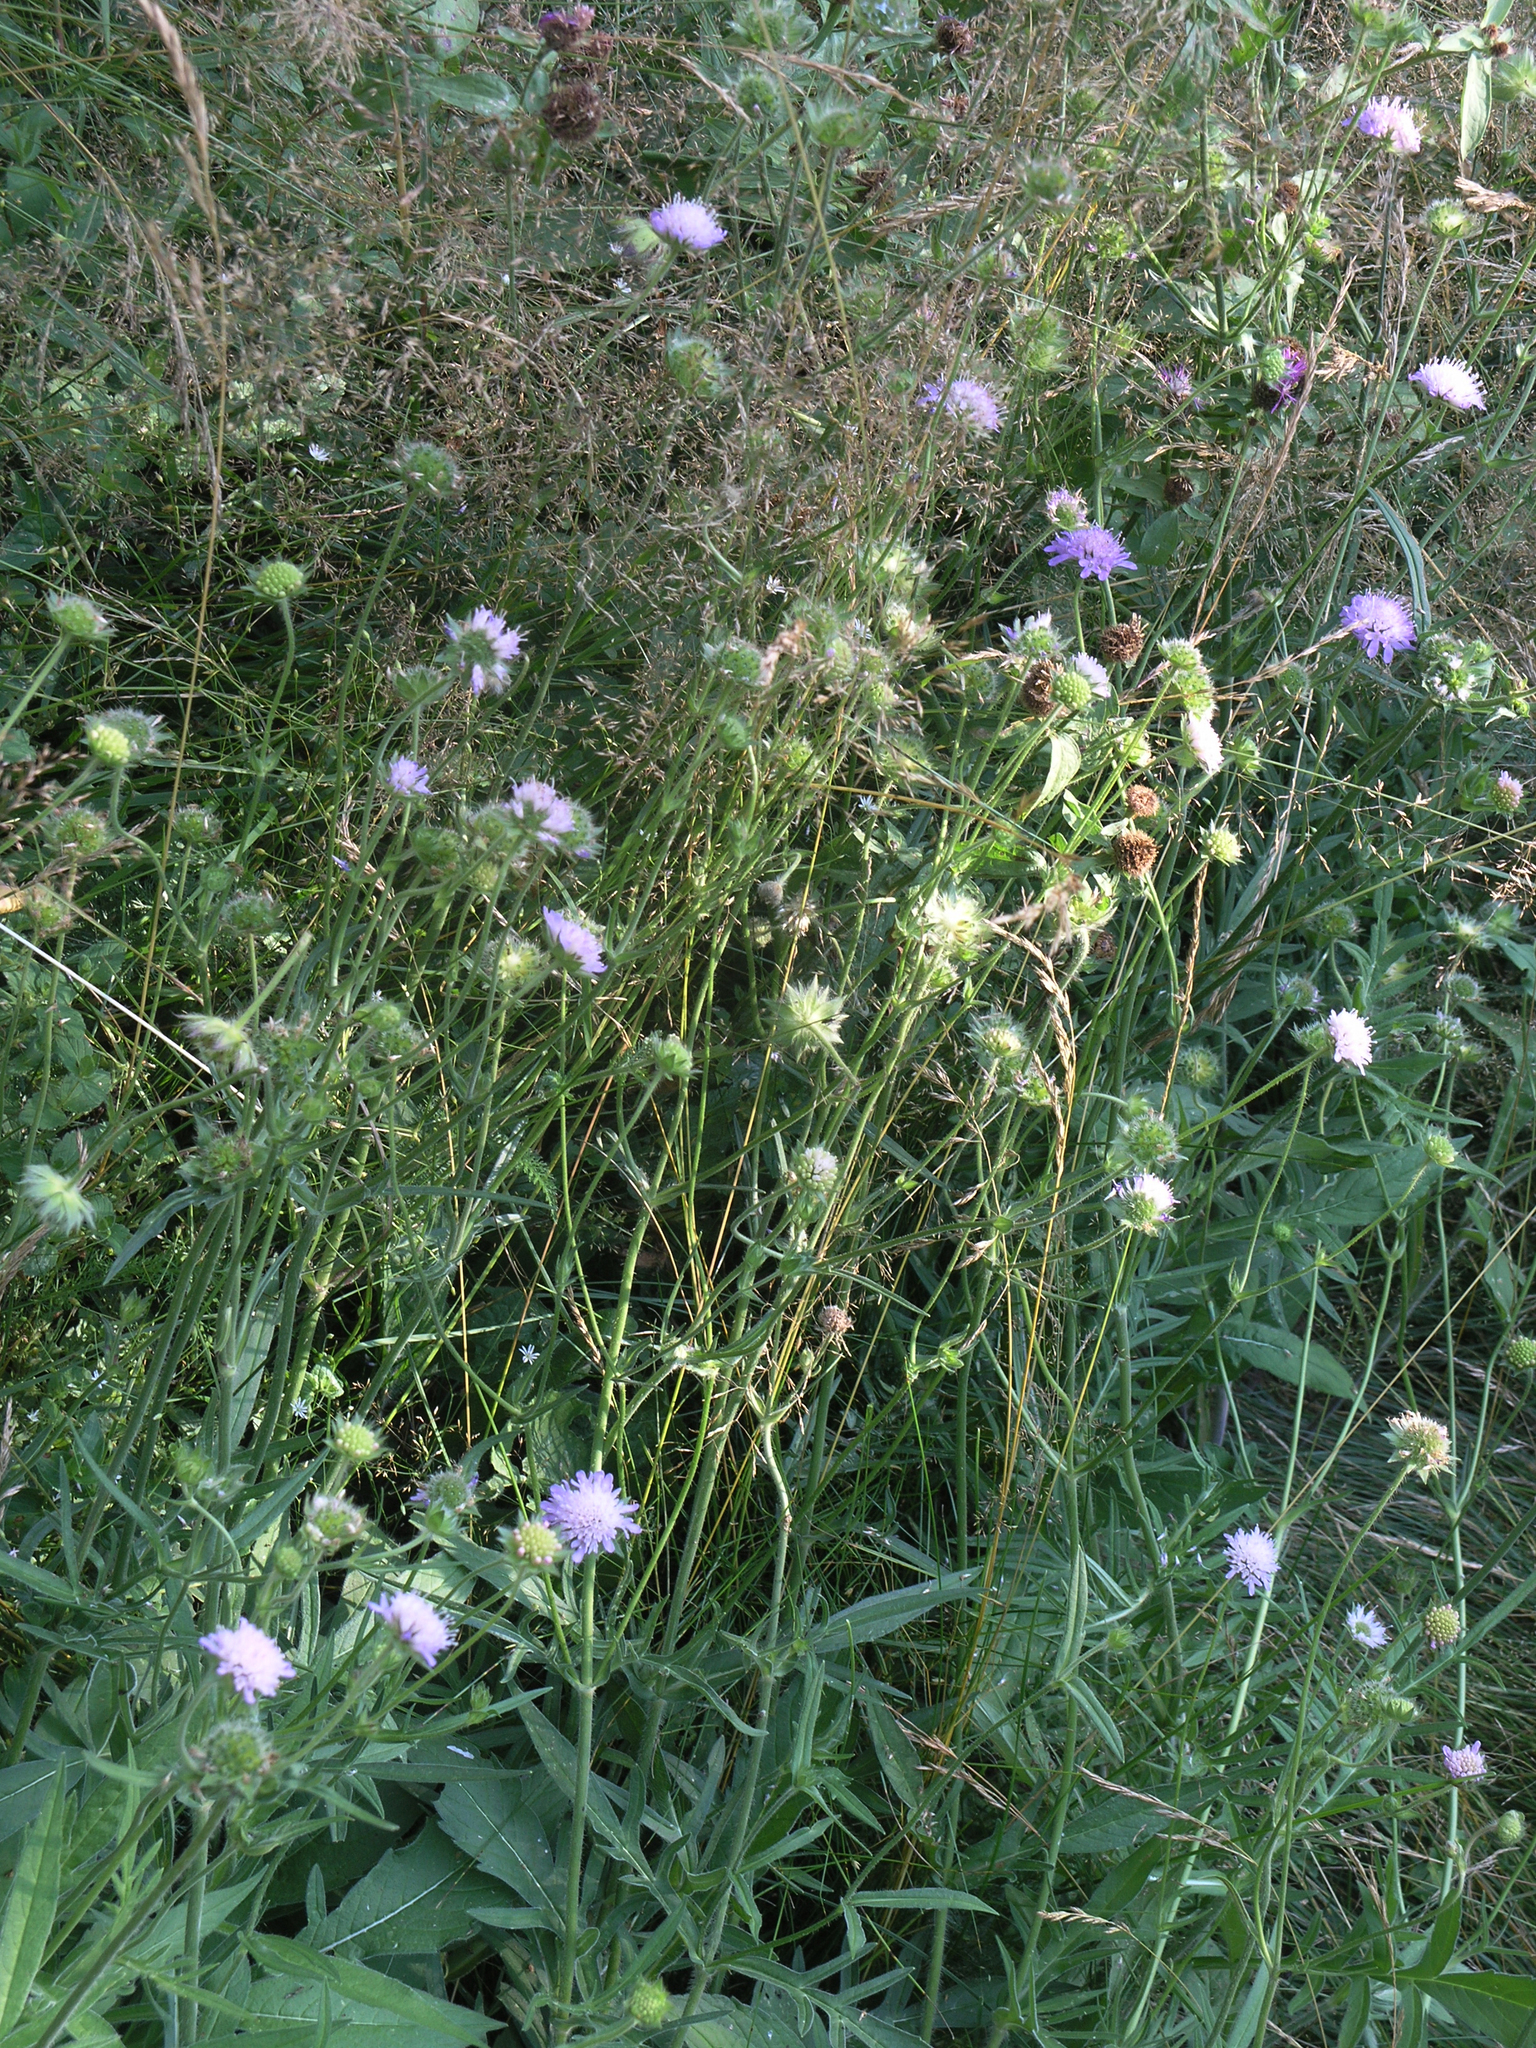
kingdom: Plantae
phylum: Tracheophyta
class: Magnoliopsida
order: Dipsacales
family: Caprifoliaceae
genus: Knautia
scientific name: Knautia arvensis
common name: Field scabiosa
